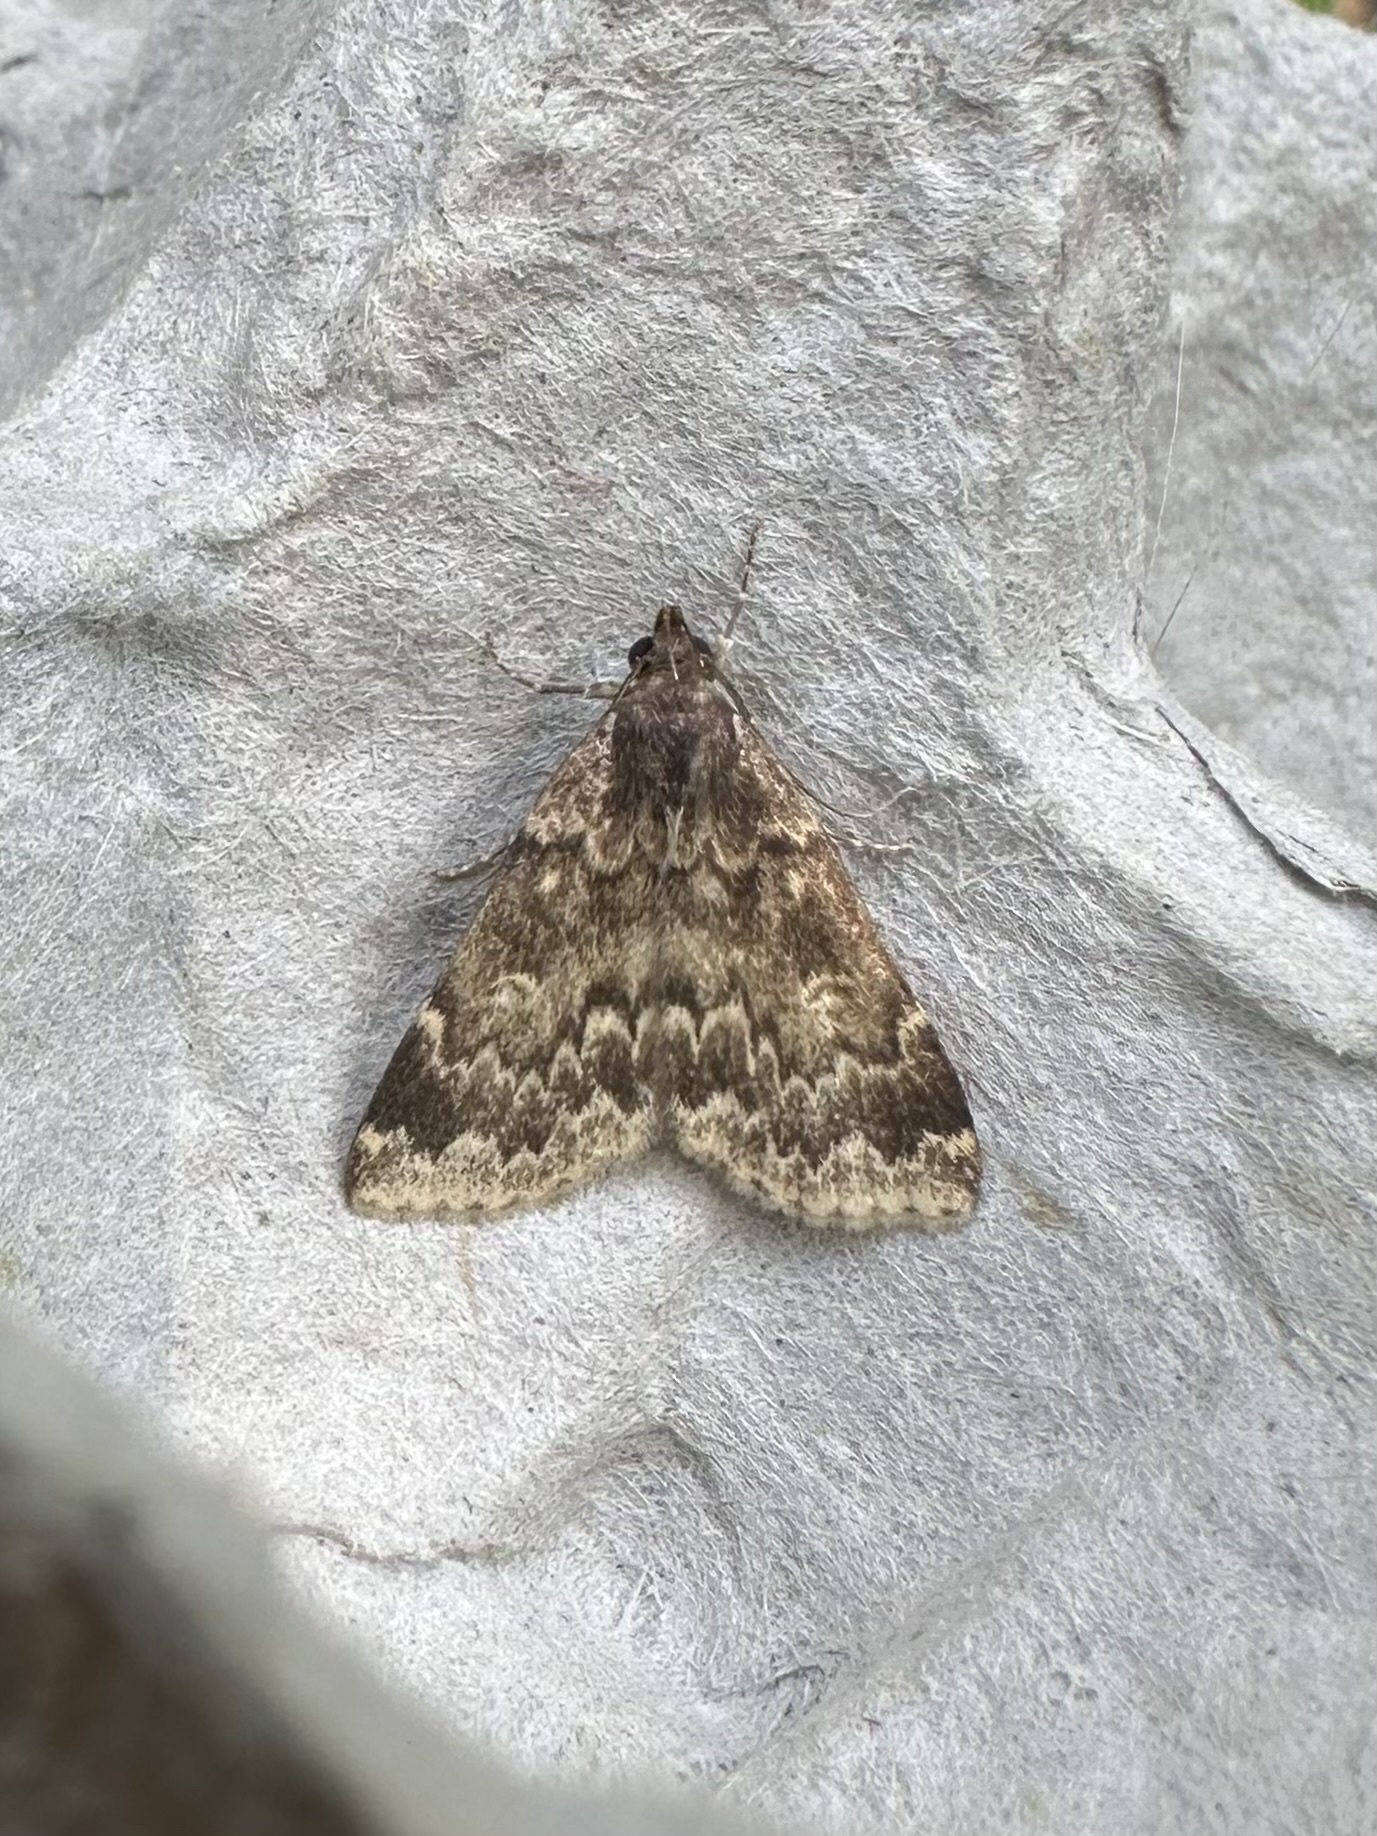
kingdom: Animalia
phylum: Arthropoda
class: Insecta
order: Lepidoptera
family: Erebidae
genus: Idia
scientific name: Idia lubricalis
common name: Twin-striped tabby
